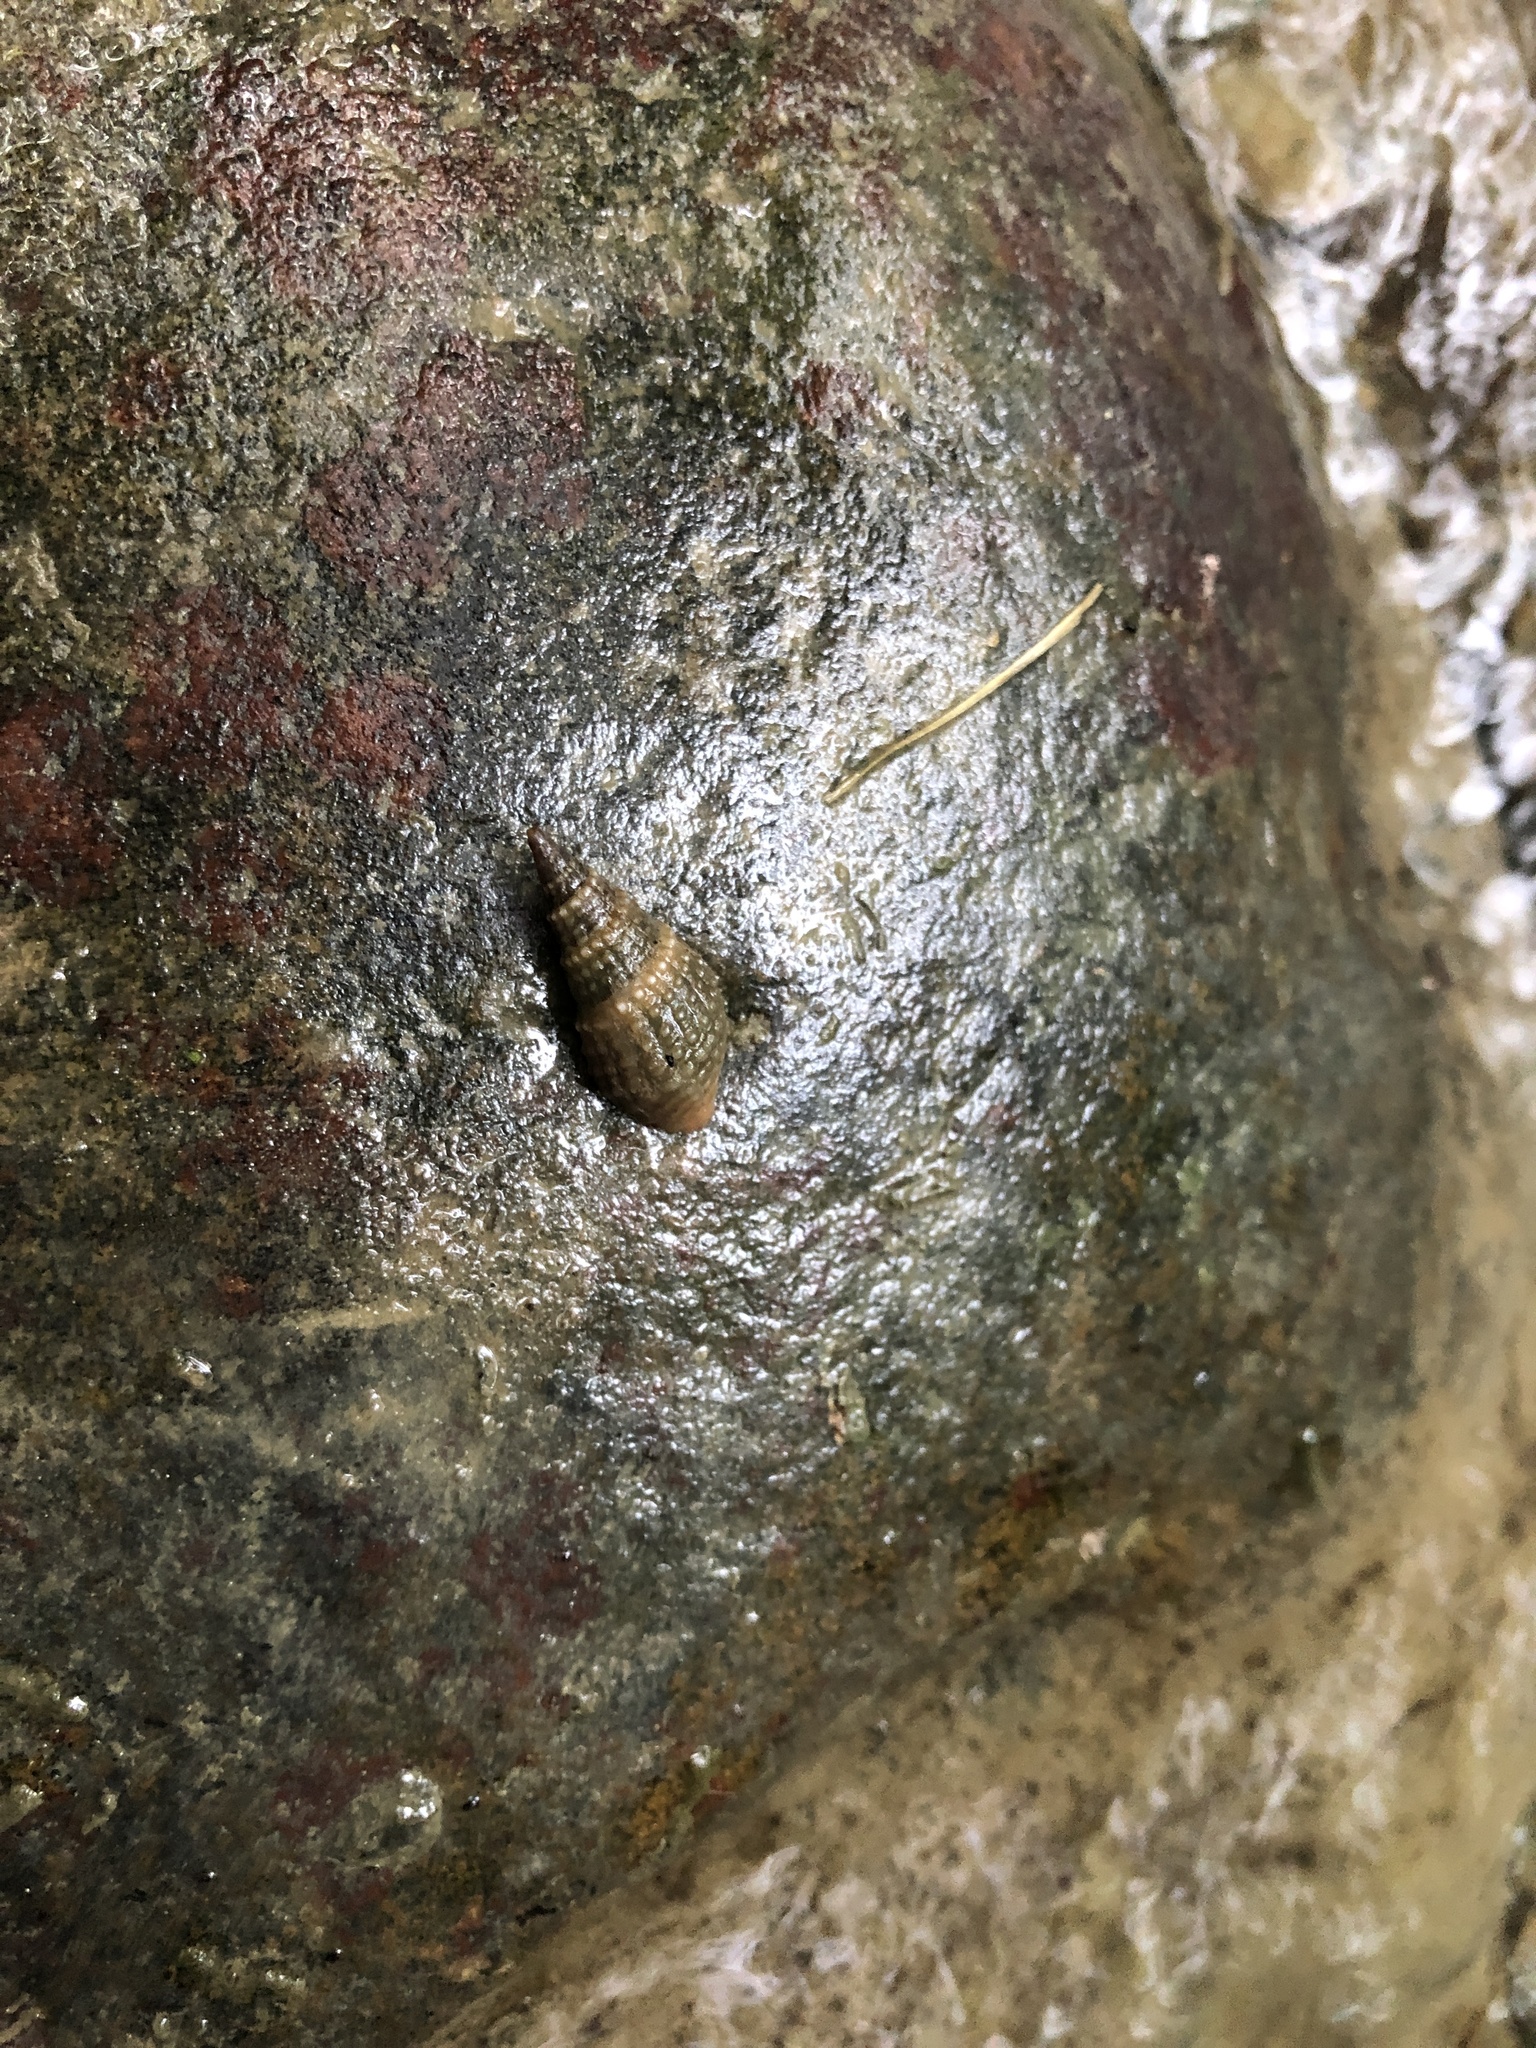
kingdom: Animalia
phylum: Mollusca
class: Gastropoda
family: Thiaridae
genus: Tarebia
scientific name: Tarebia granifera
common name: Quilted melania
